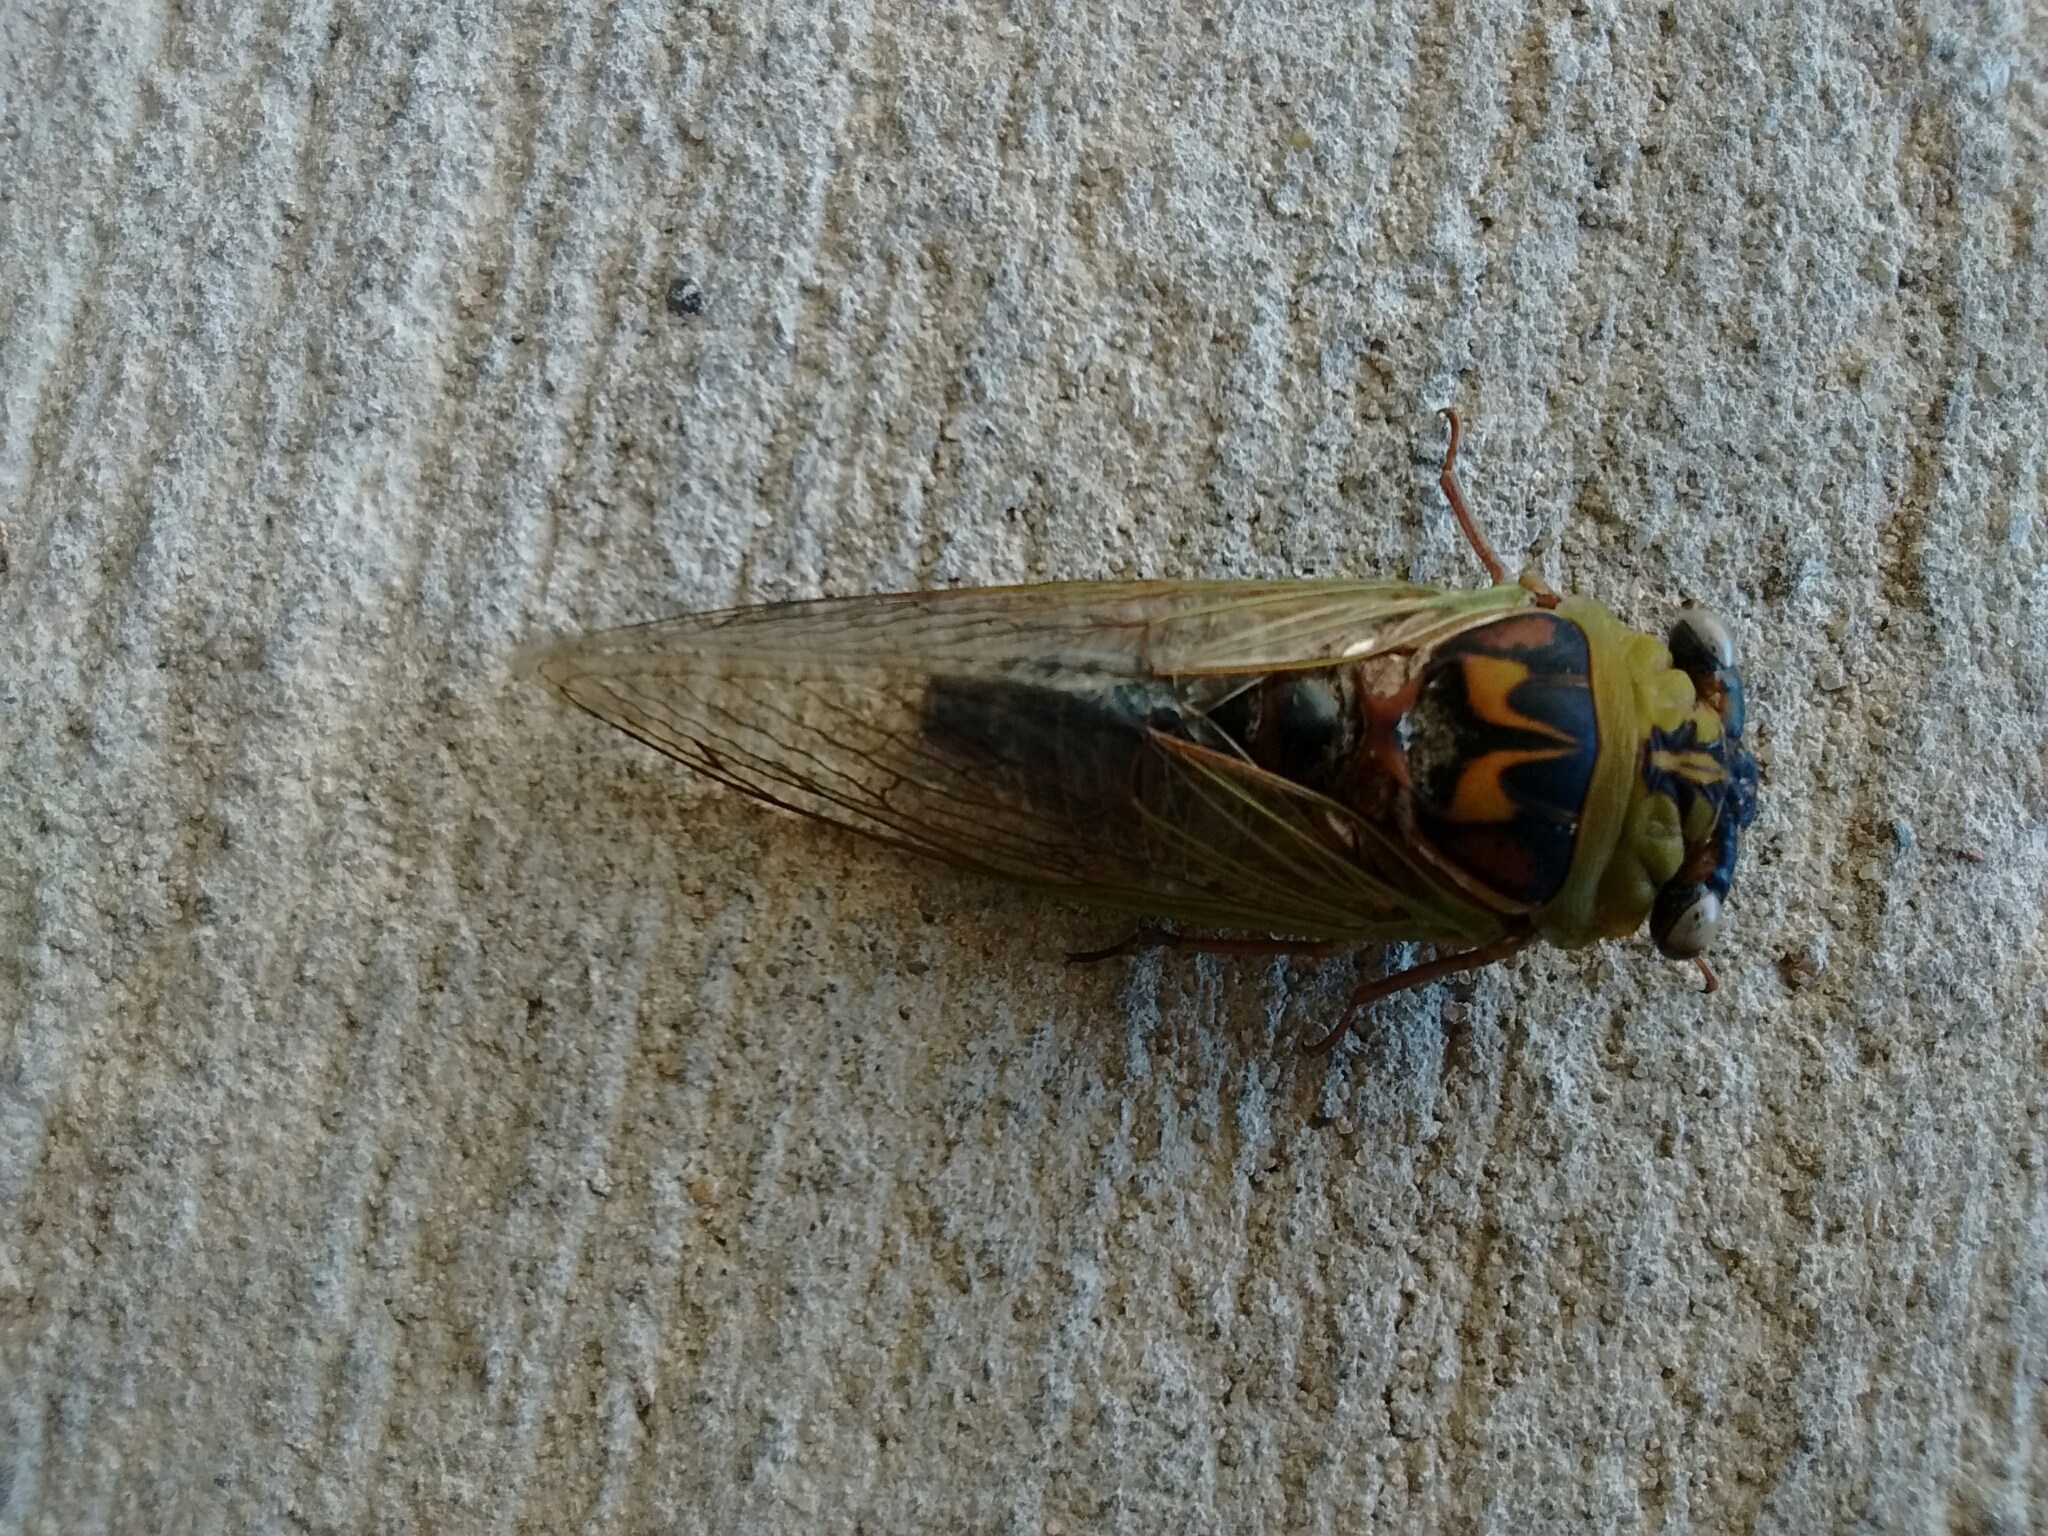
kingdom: Animalia
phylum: Arthropoda
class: Insecta
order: Hemiptera
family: Cicadidae
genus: Megatibicen
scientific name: Megatibicen pronotalis
